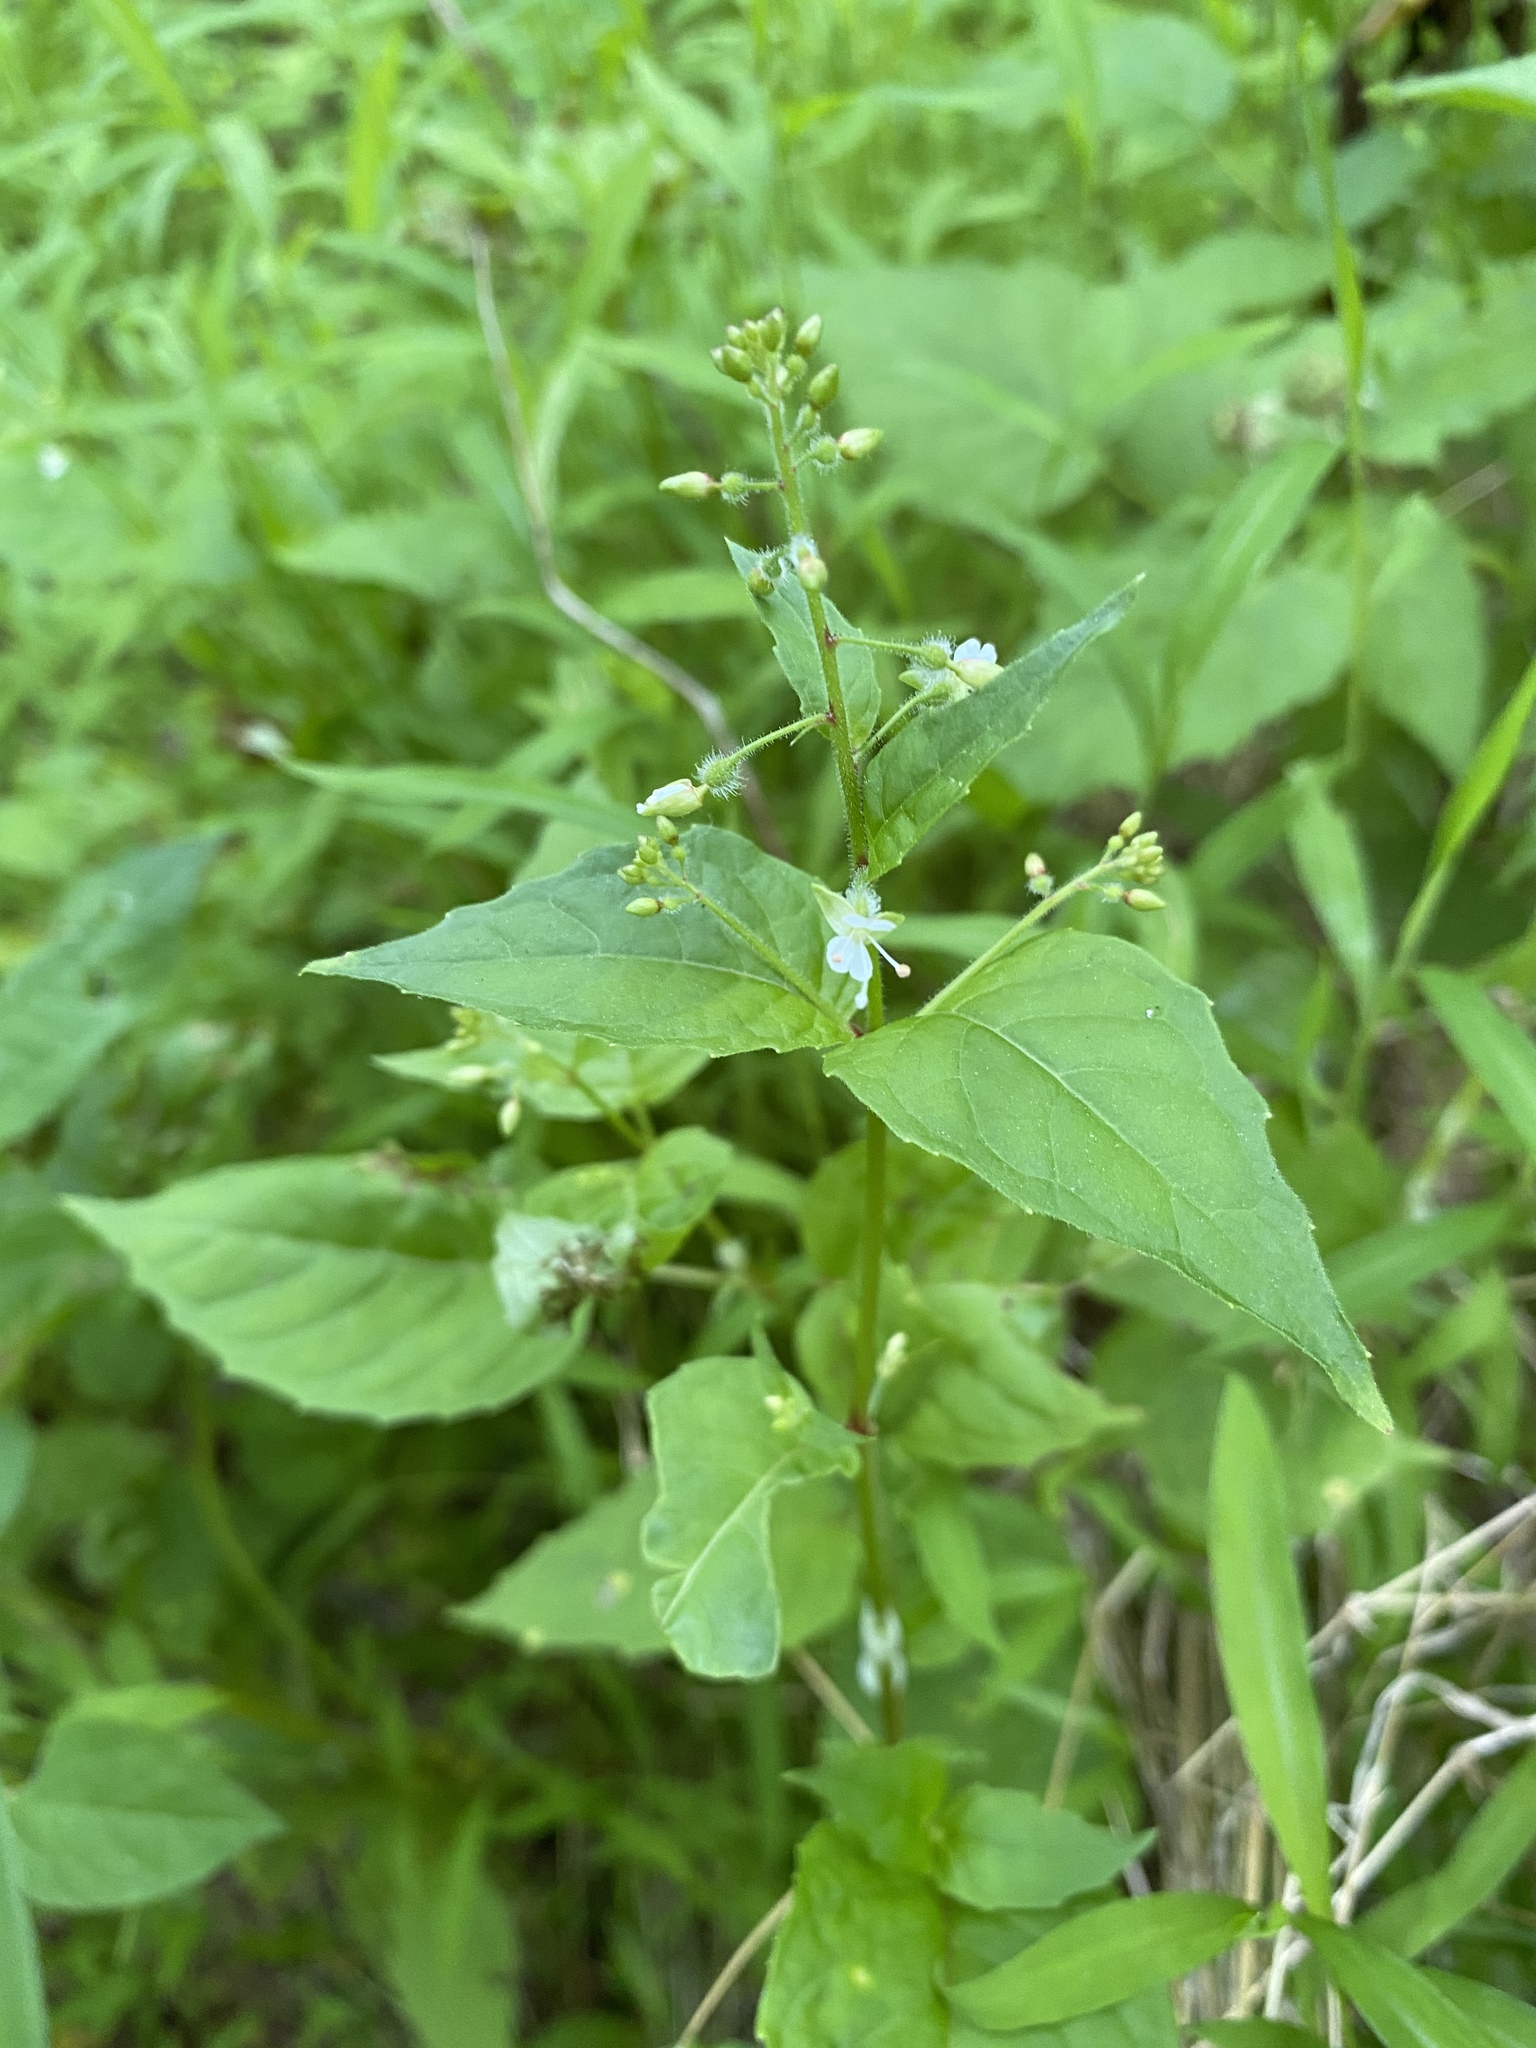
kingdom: Plantae
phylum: Tracheophyta
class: Magnoliopsida
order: Myrtales
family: Onagraceae
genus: Circaea
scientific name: Circaea canadensis
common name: Broad-leaved enchanter's nightshade
